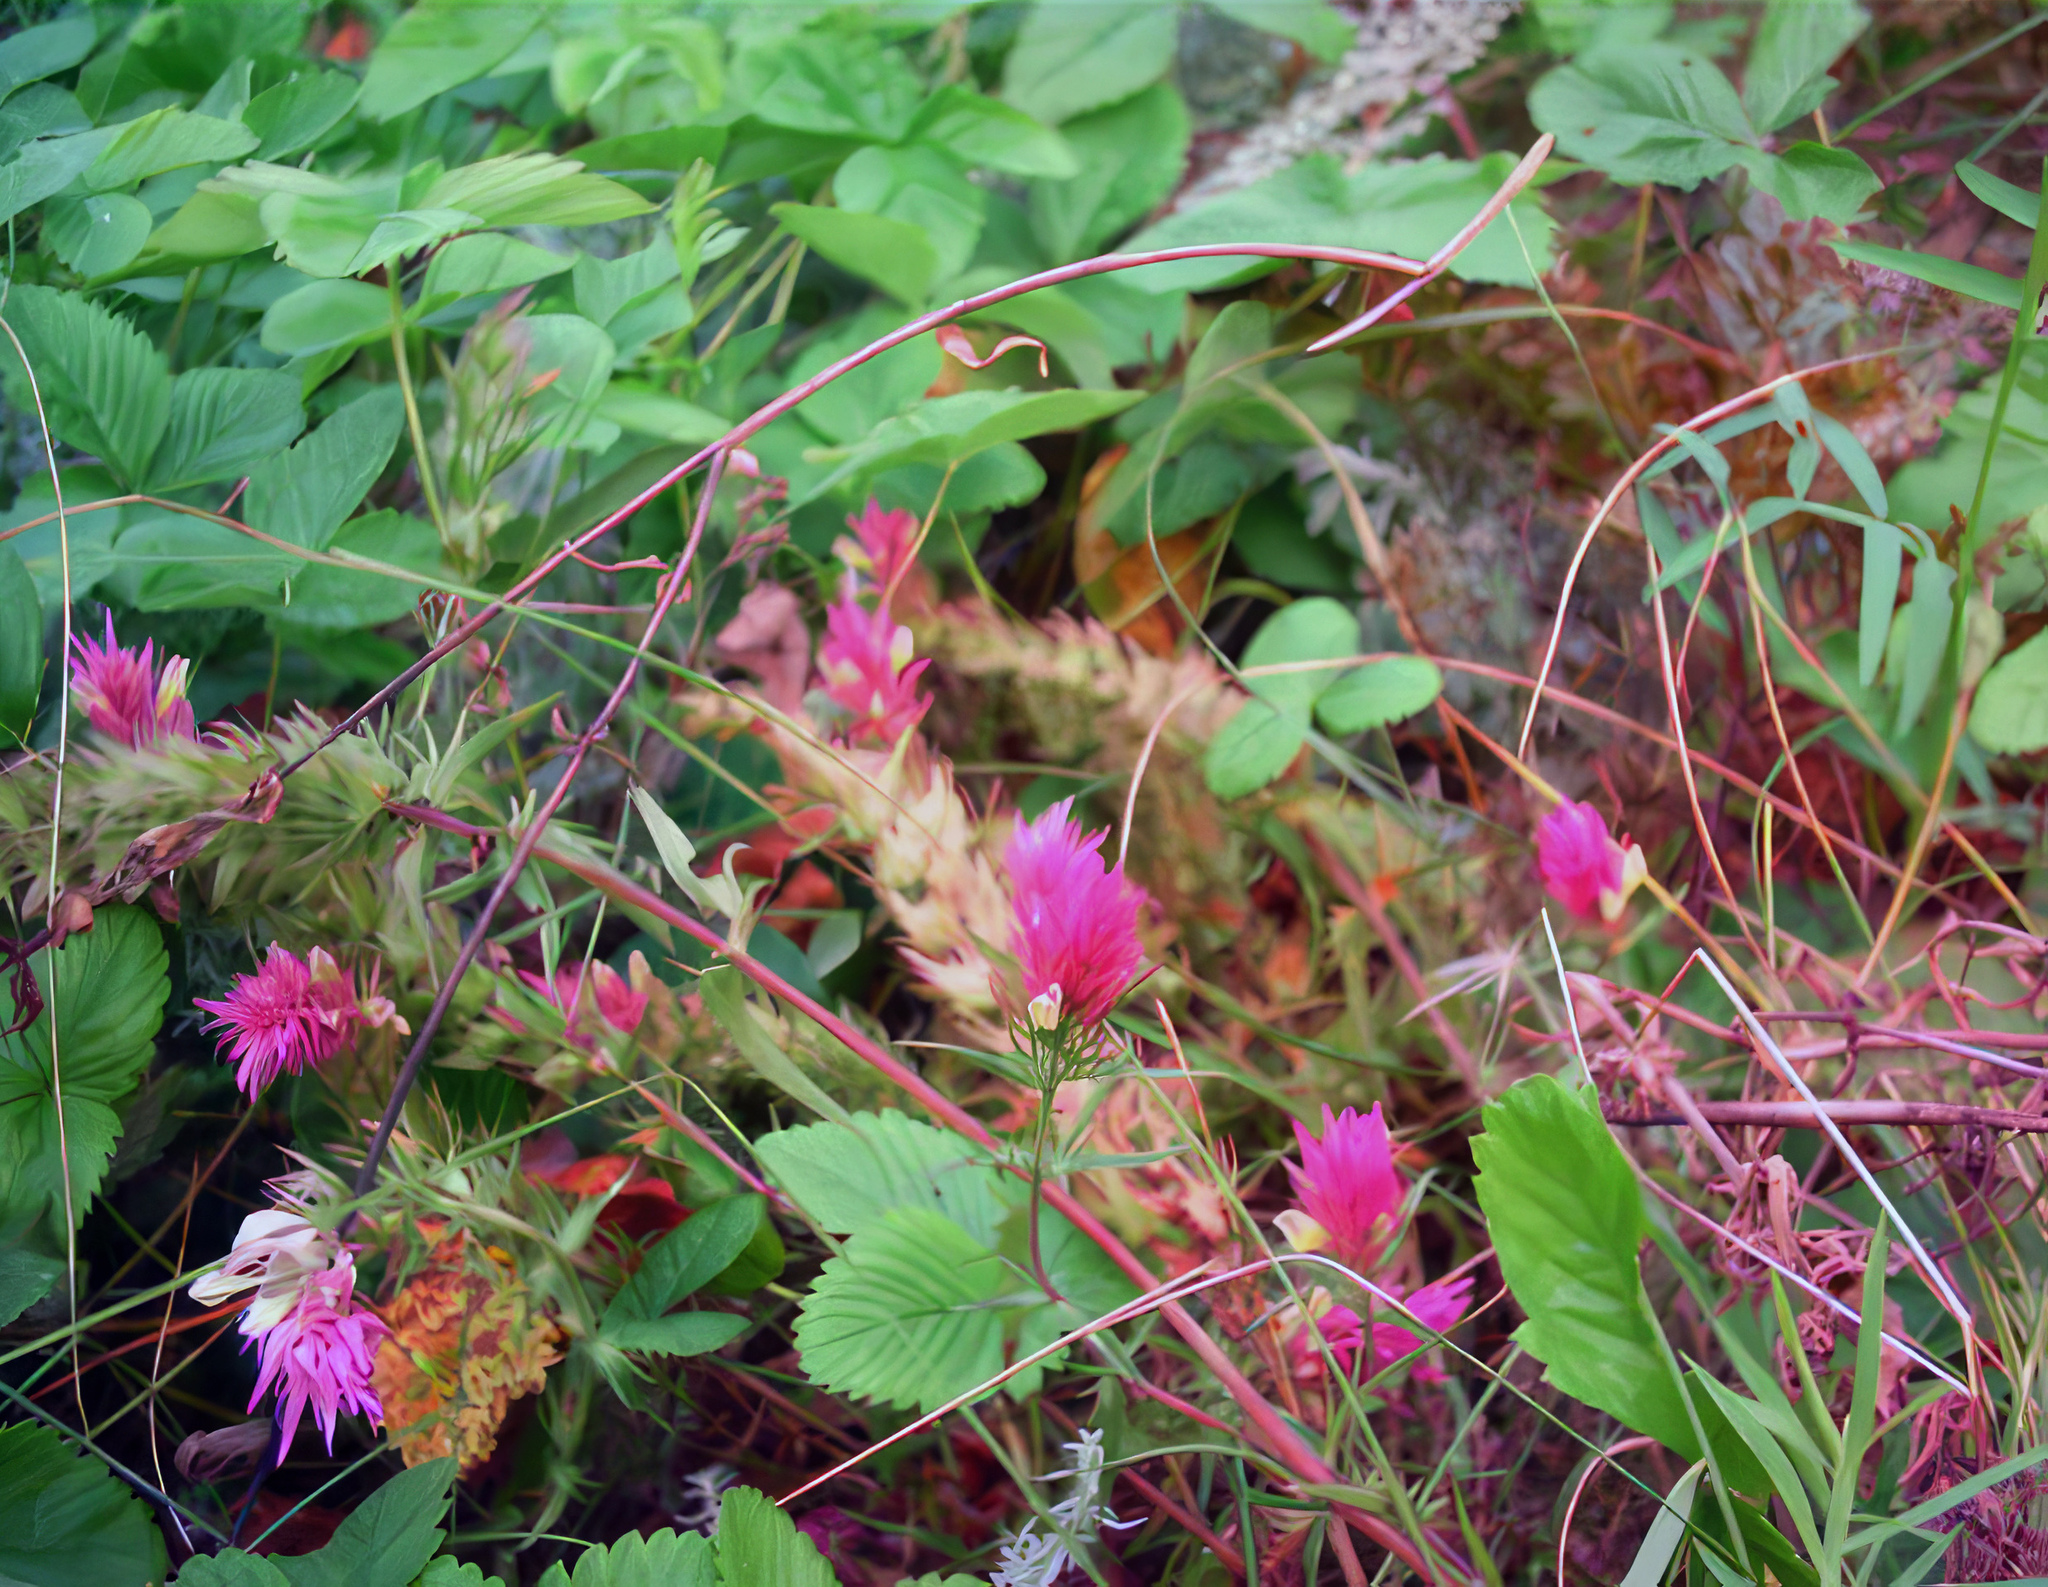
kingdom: Plantae
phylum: Tracheophyta
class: Magnoliopsida
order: Lamiales
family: Orobanchaceae
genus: Melampyrum
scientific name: Melampyrum arvense
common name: Field cow-wheat
